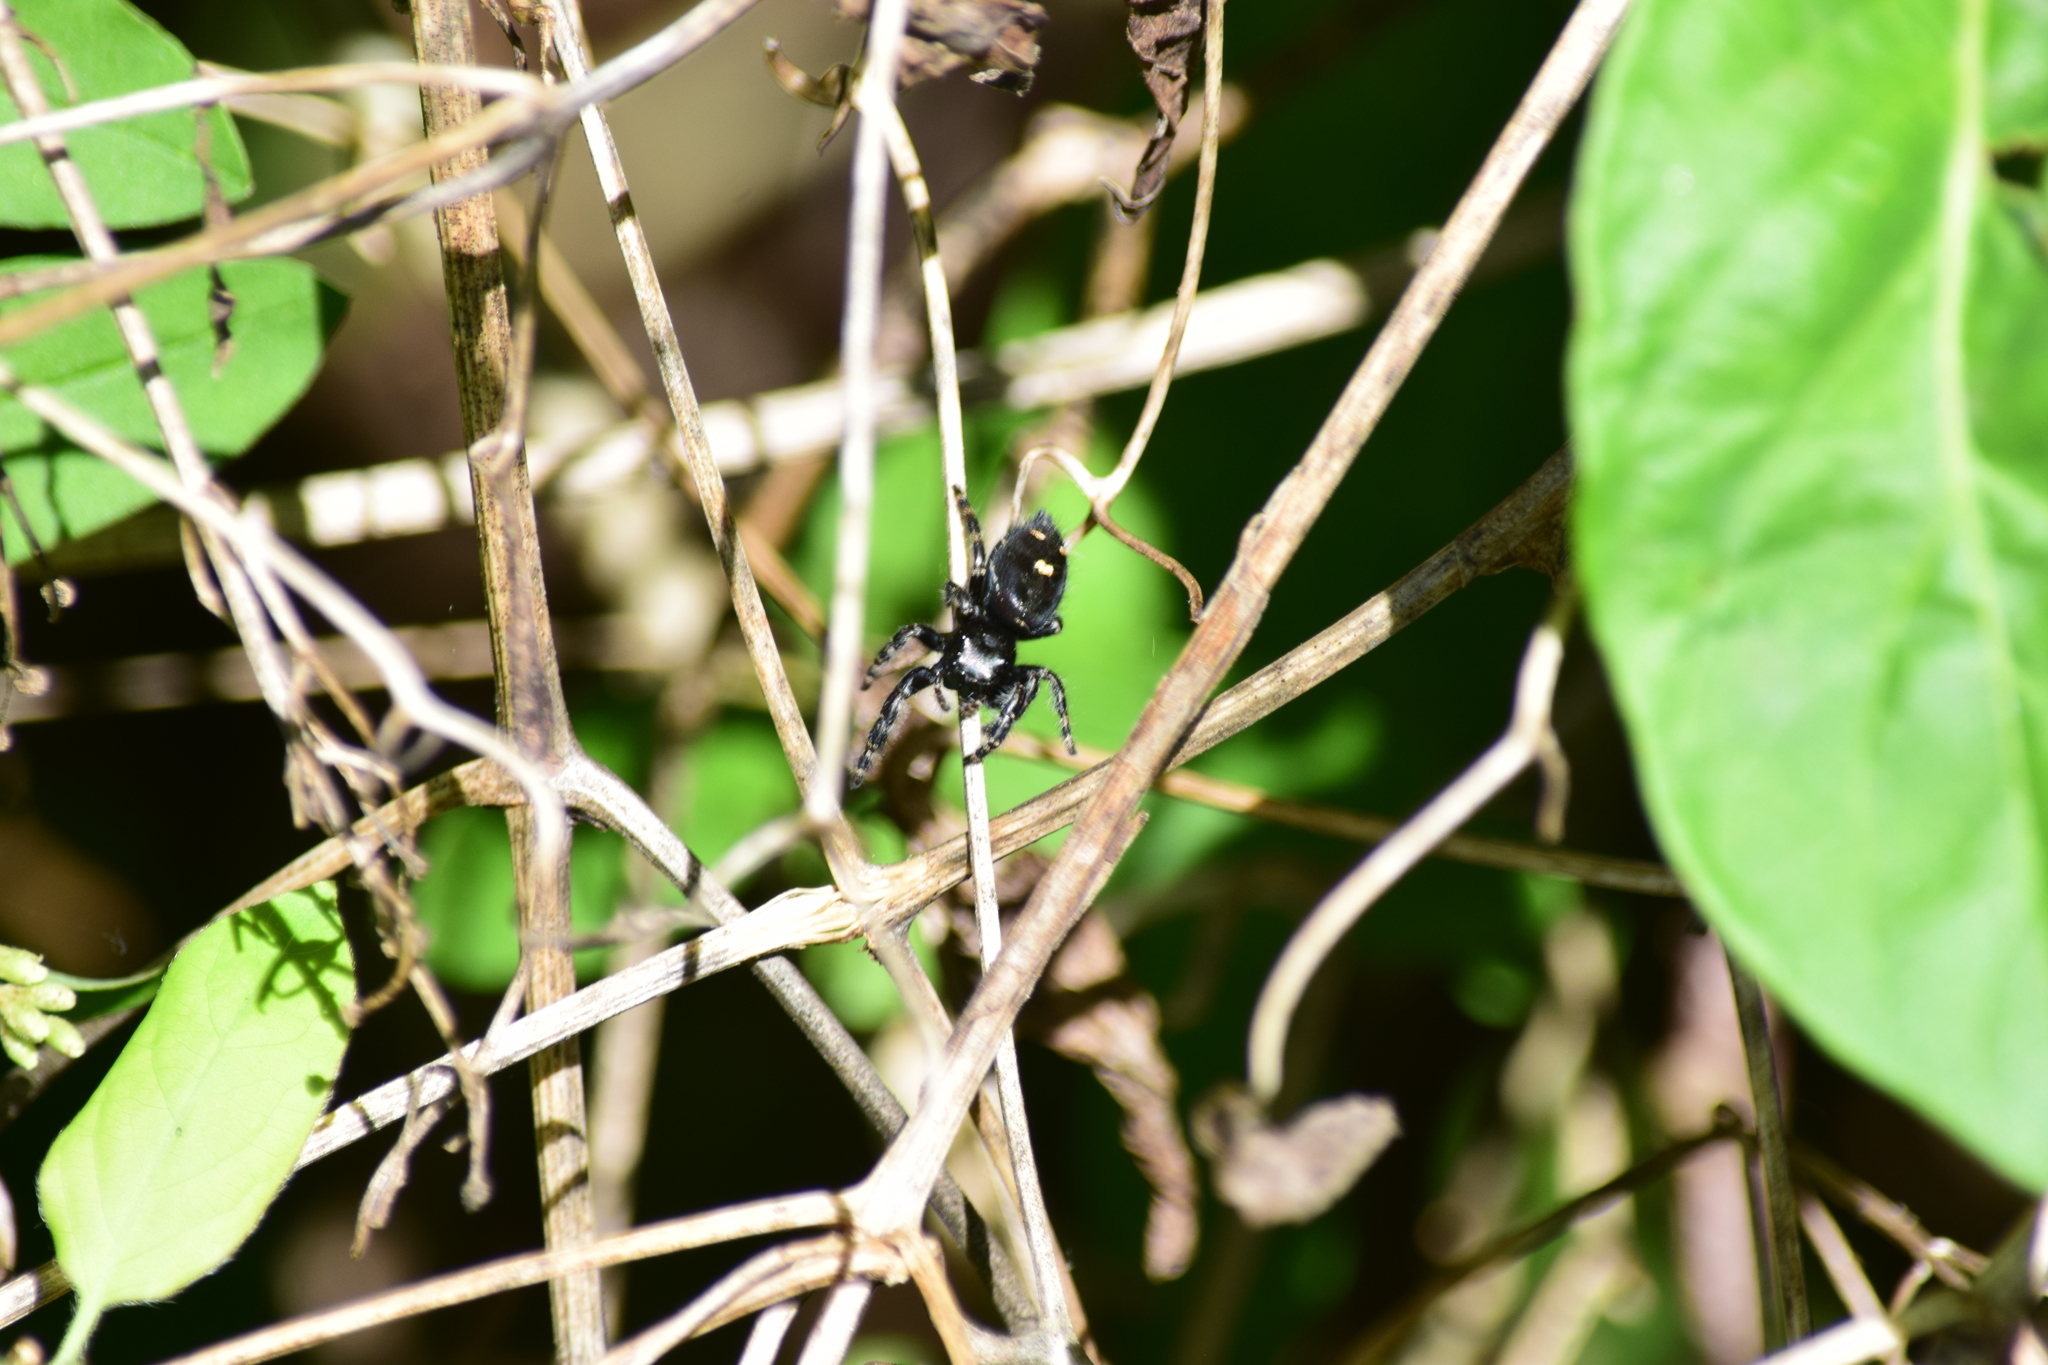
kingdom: Animalia
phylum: Arthropoda
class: Arachnida
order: Araneae
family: Salticidae
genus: Phidippus
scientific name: Phidippus audax
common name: Bold jumper
